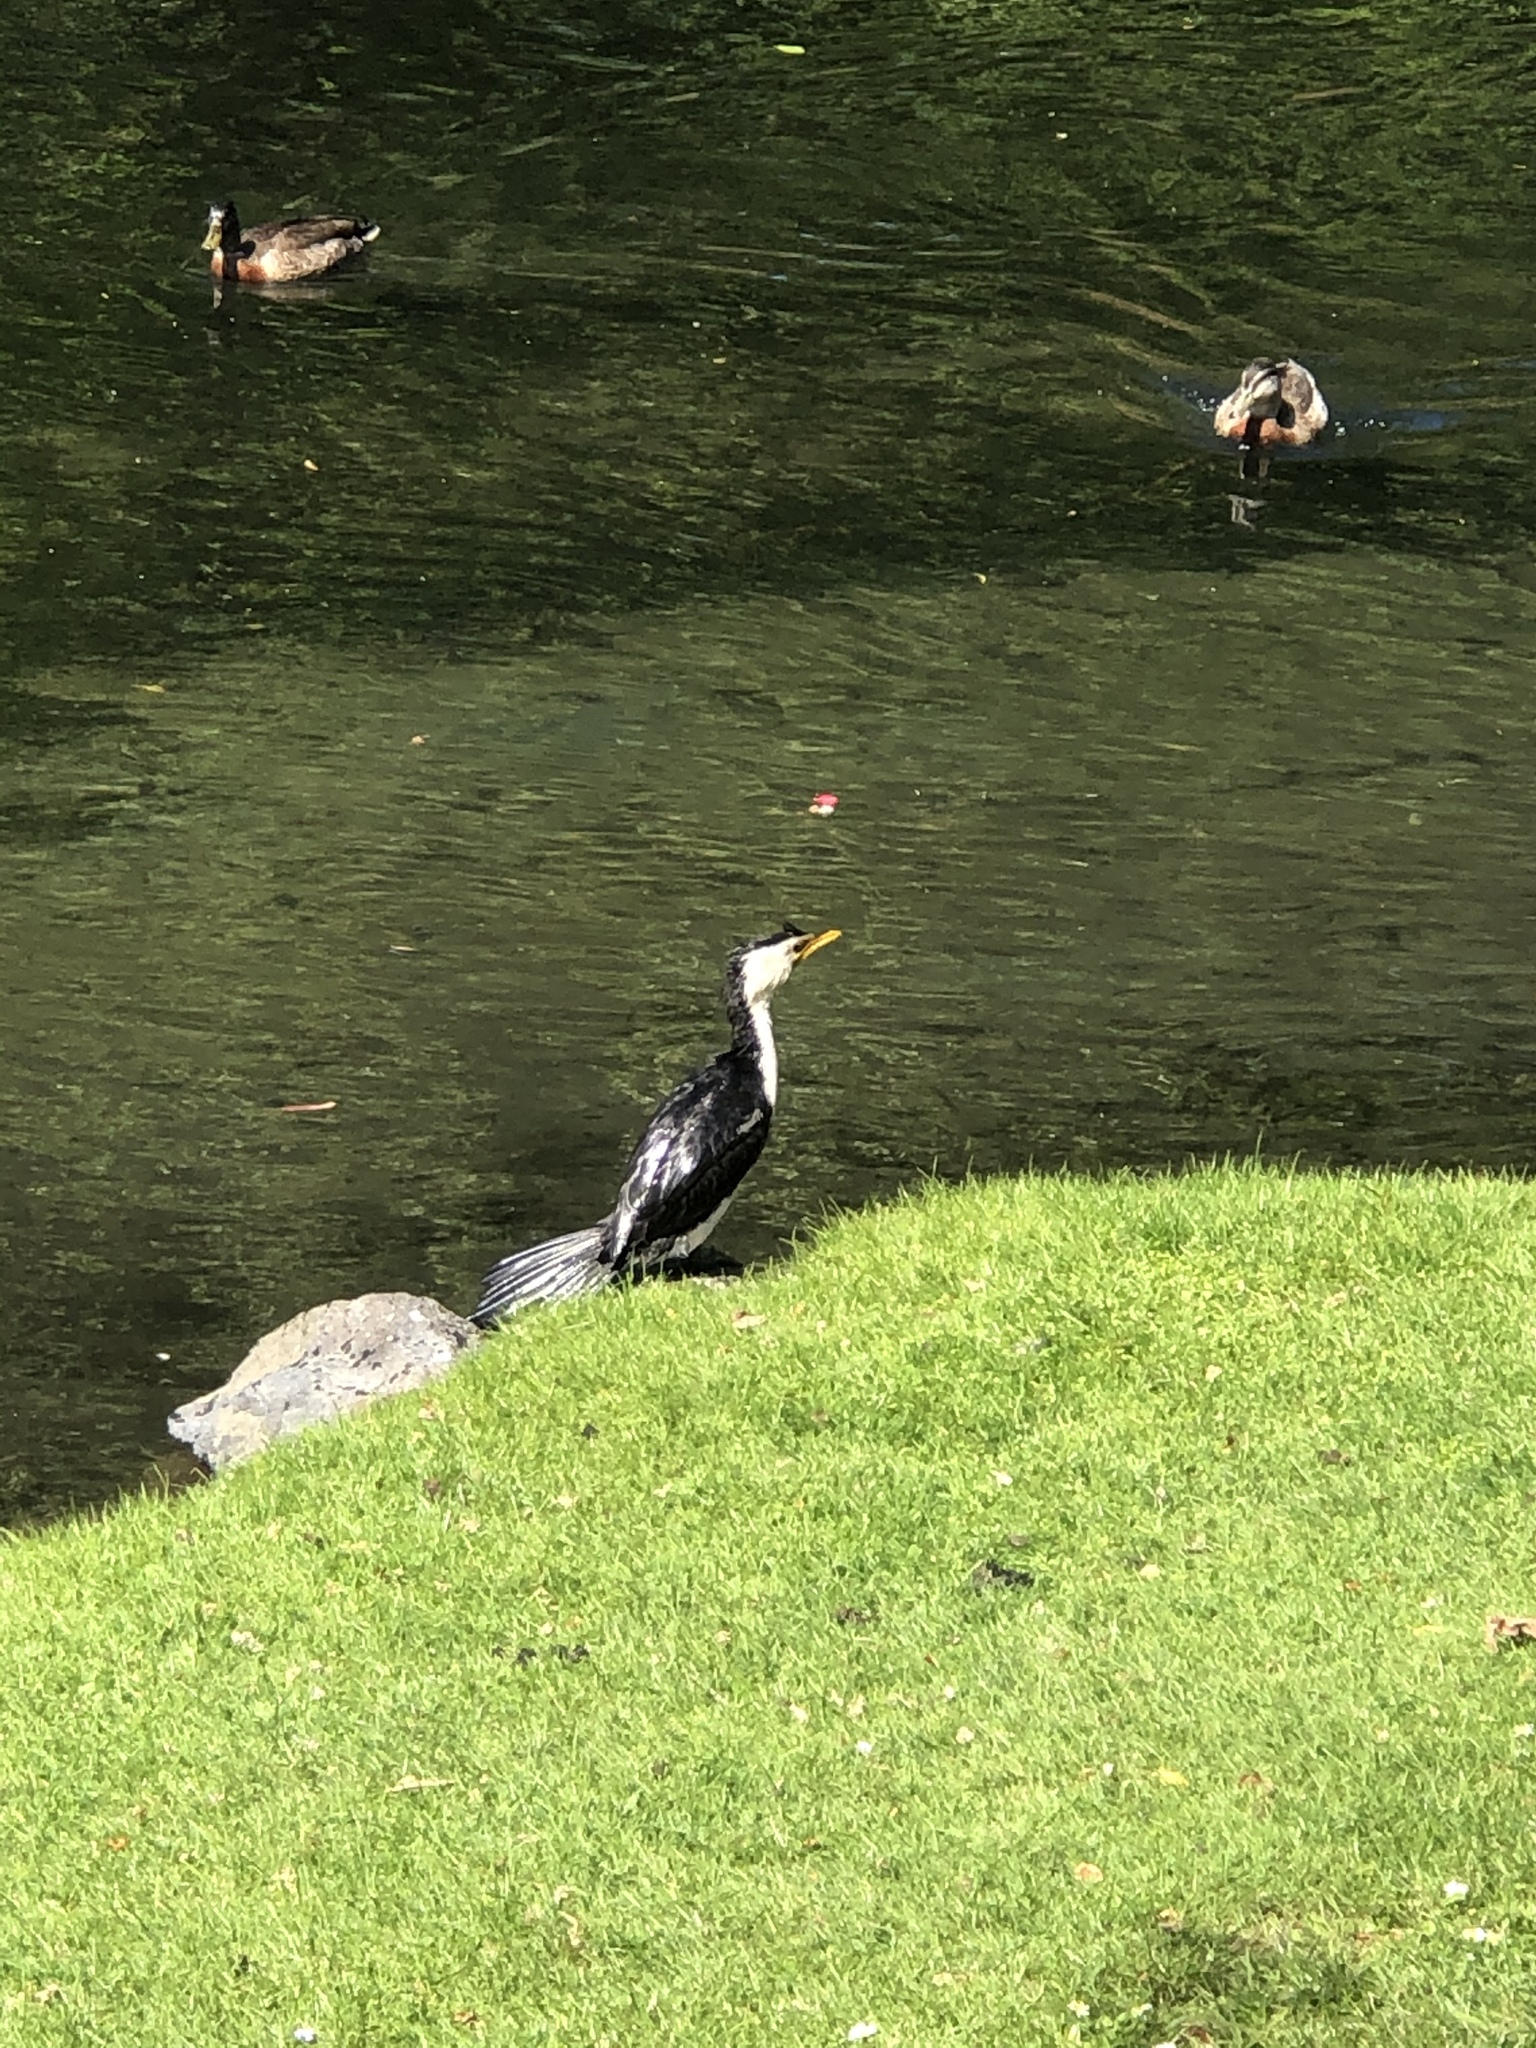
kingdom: Animalia
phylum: Chordata
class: Aves
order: Suliformes
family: Phalacrocoracidae
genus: Microcarbo
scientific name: Microcarbo melanoleucos
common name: Little pied cormorant
